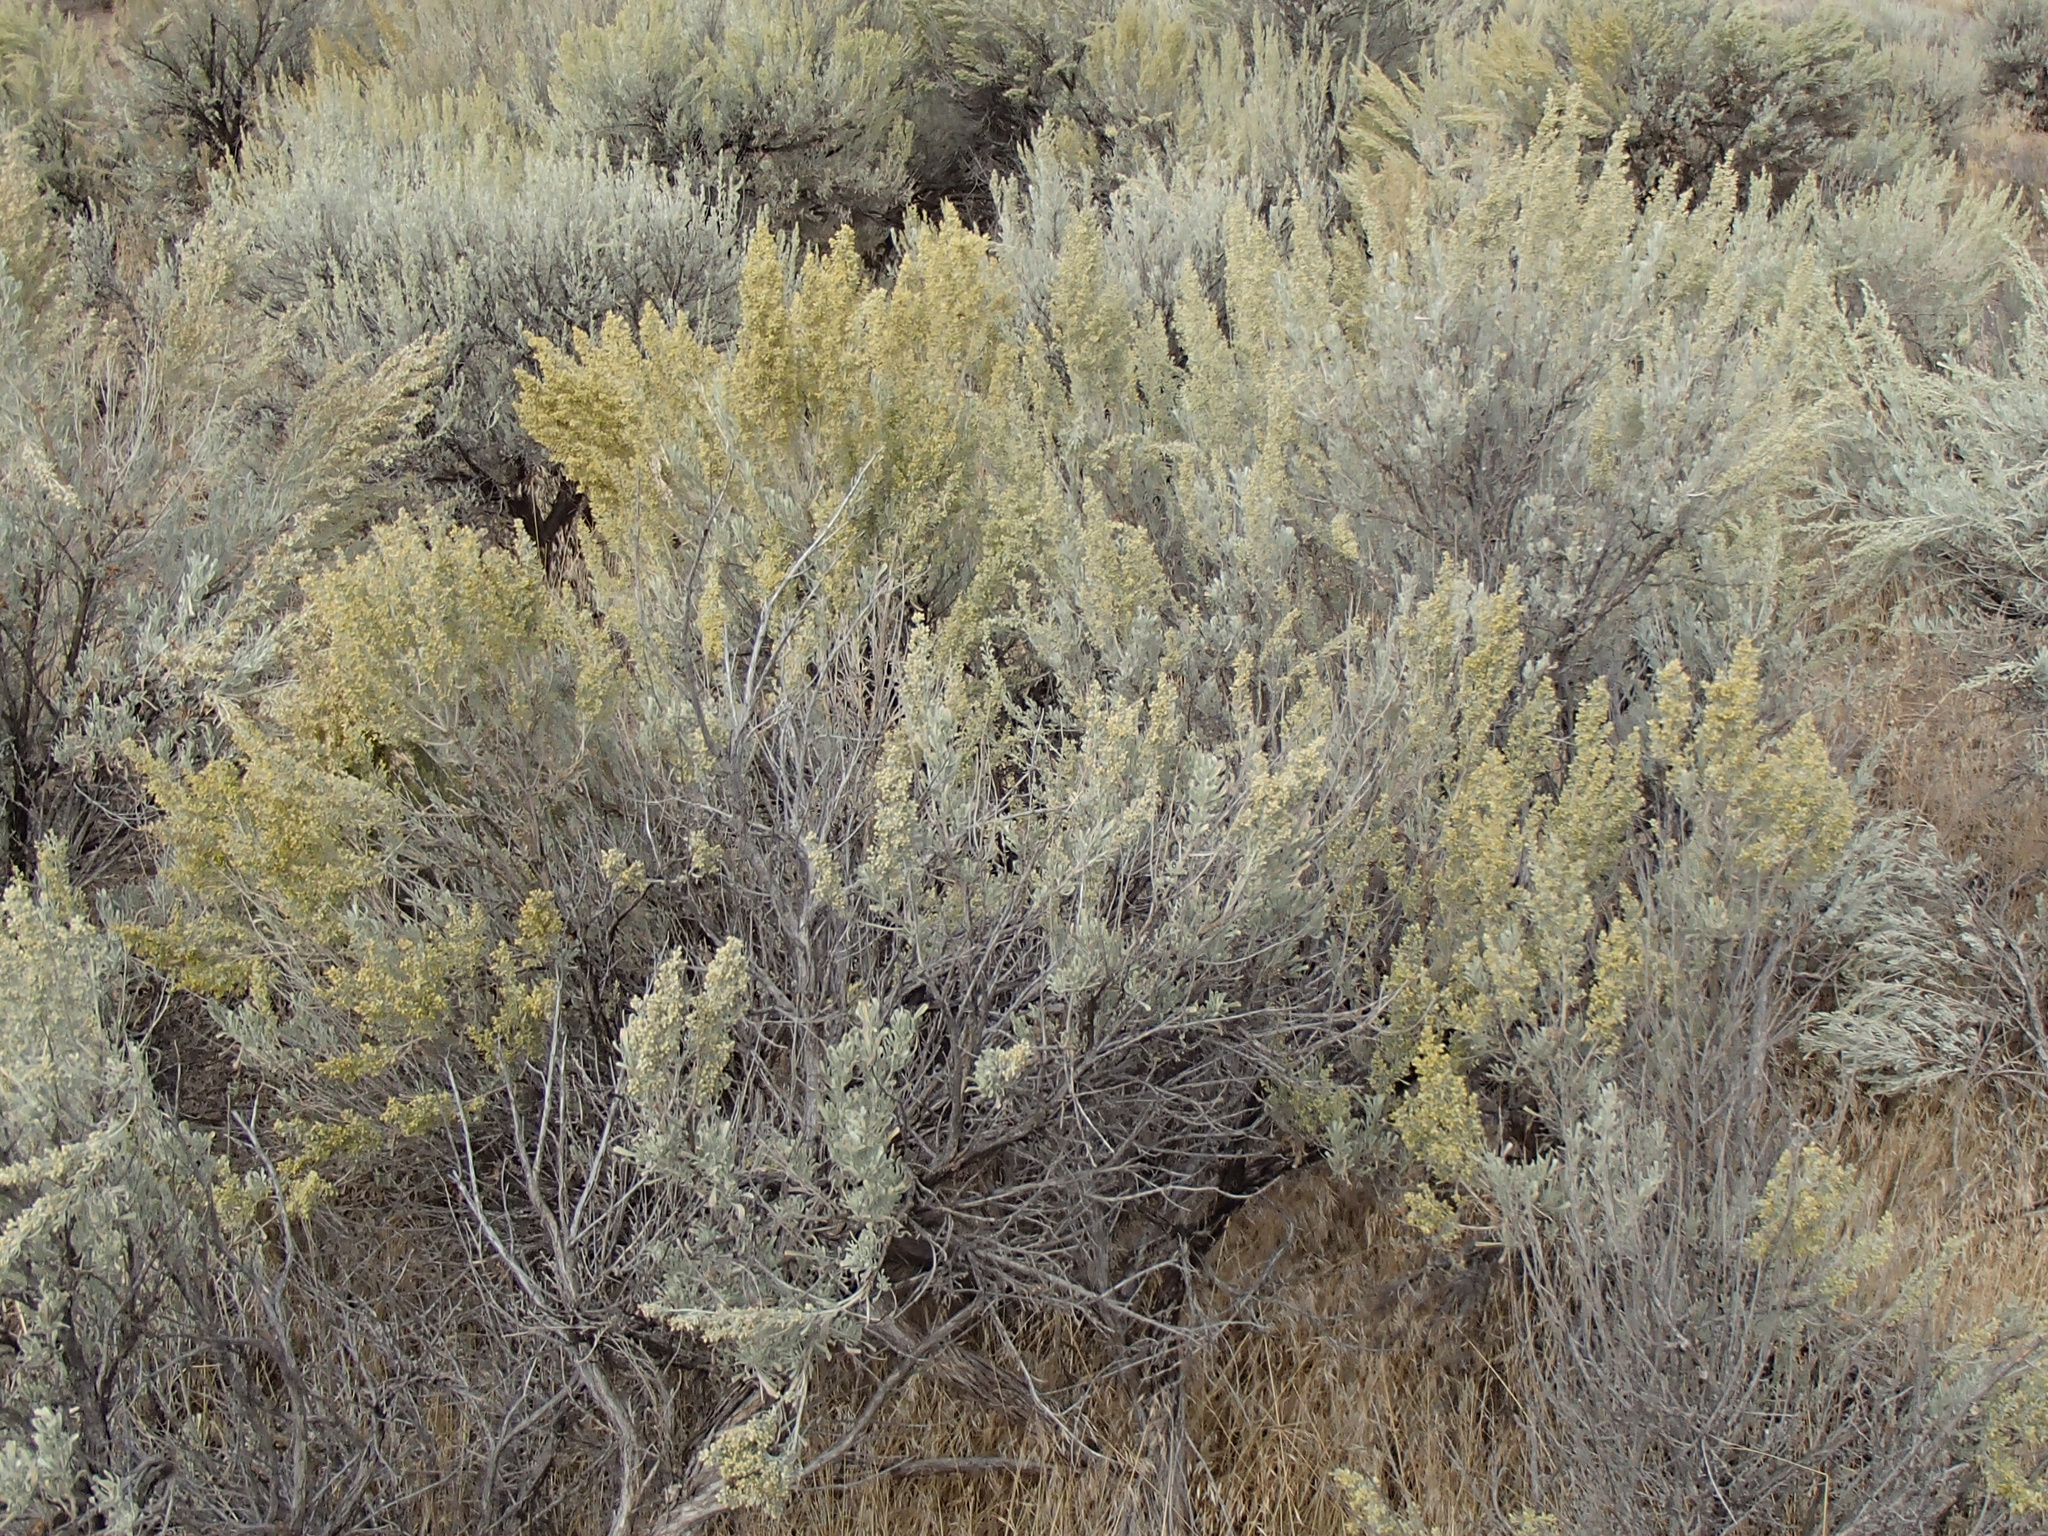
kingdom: Plantae
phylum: Tracheophyta
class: Magnoliopsida
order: Asterales
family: Asteraceae
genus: Artemisia
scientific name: Artemisia tridentata
